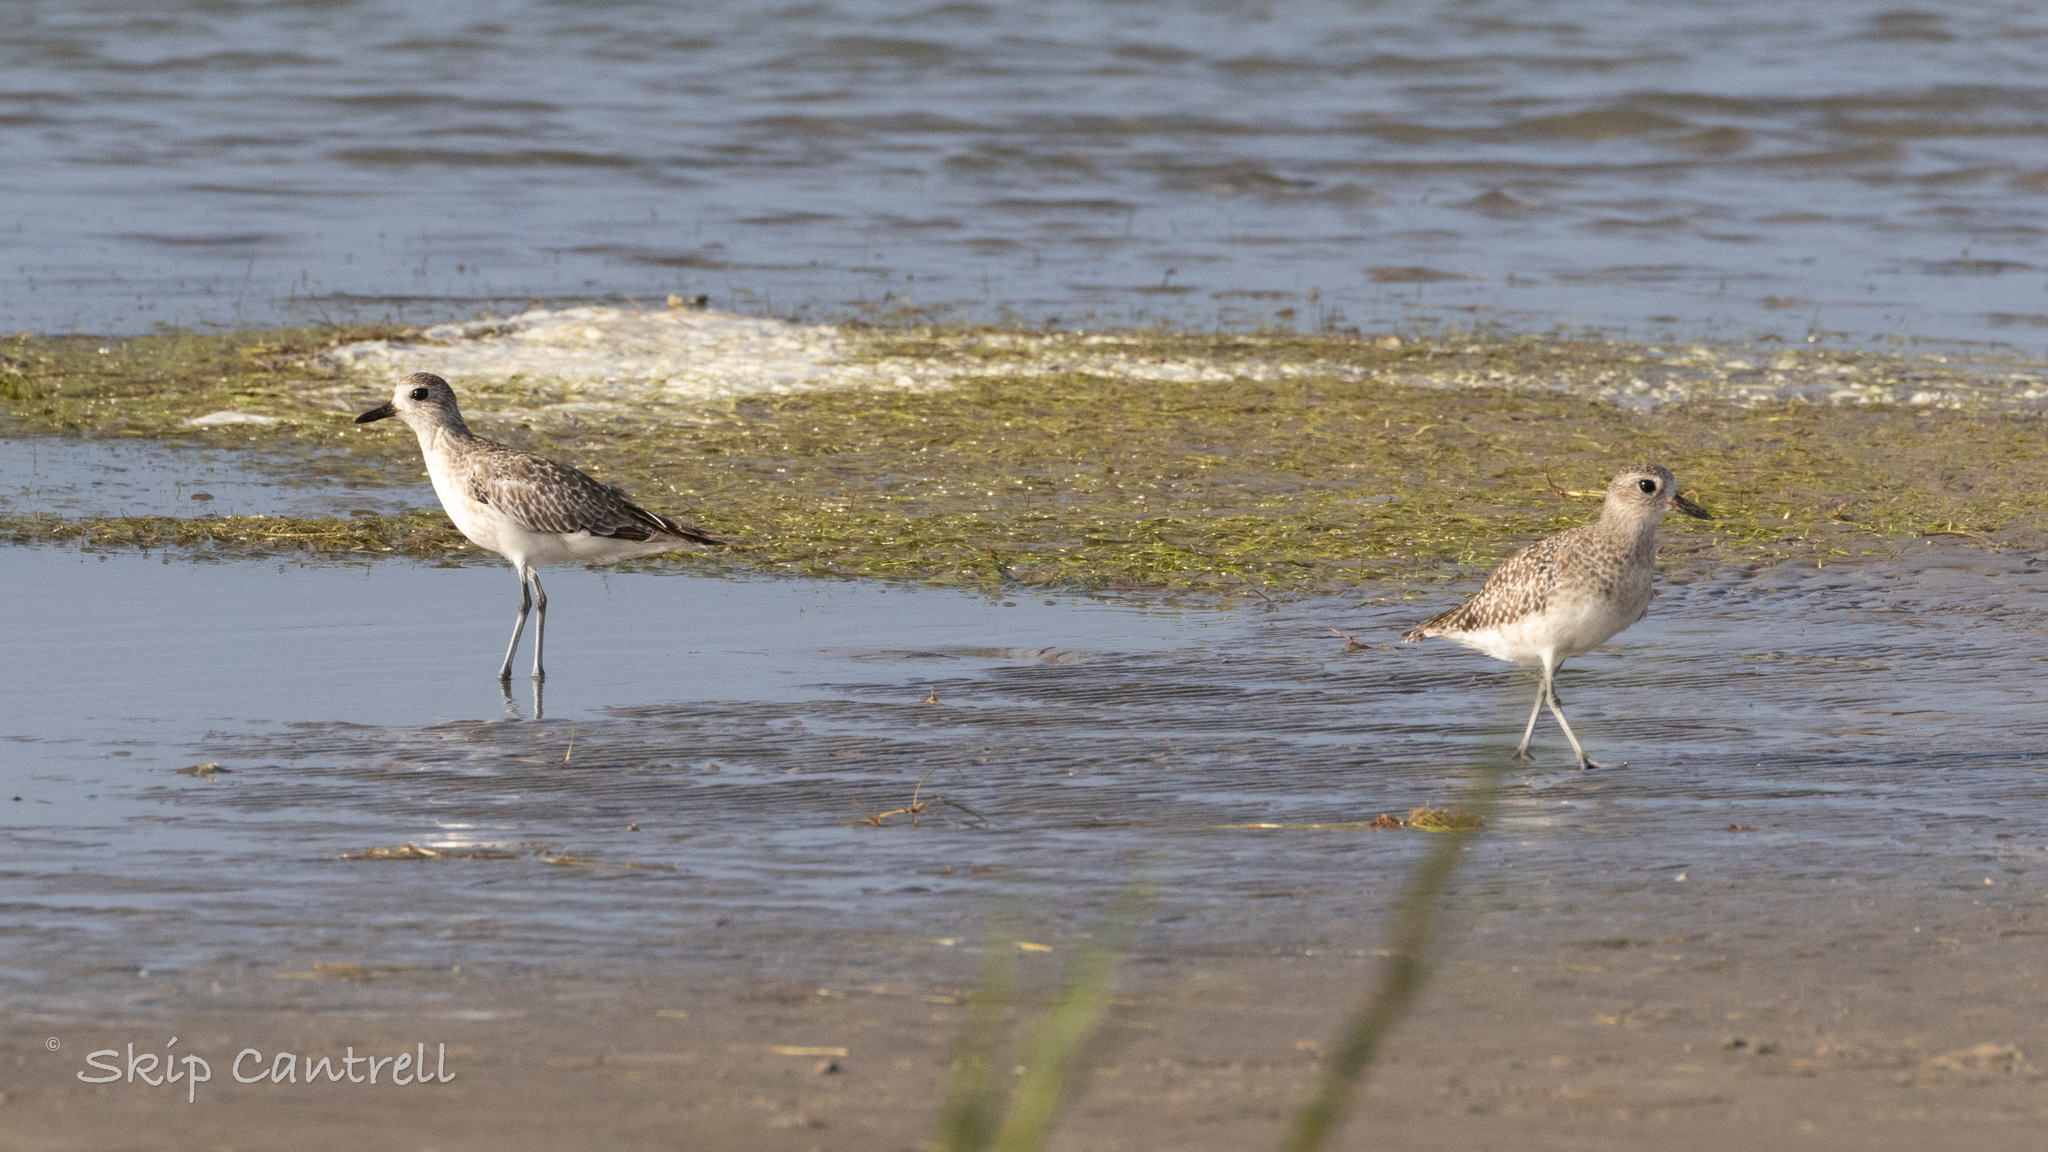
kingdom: Animalia
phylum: Chordata
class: Aves
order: Charadriiformes
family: Charadriidae
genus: Pluvialis
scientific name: Pluvialis squatarola
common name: Grey plover
